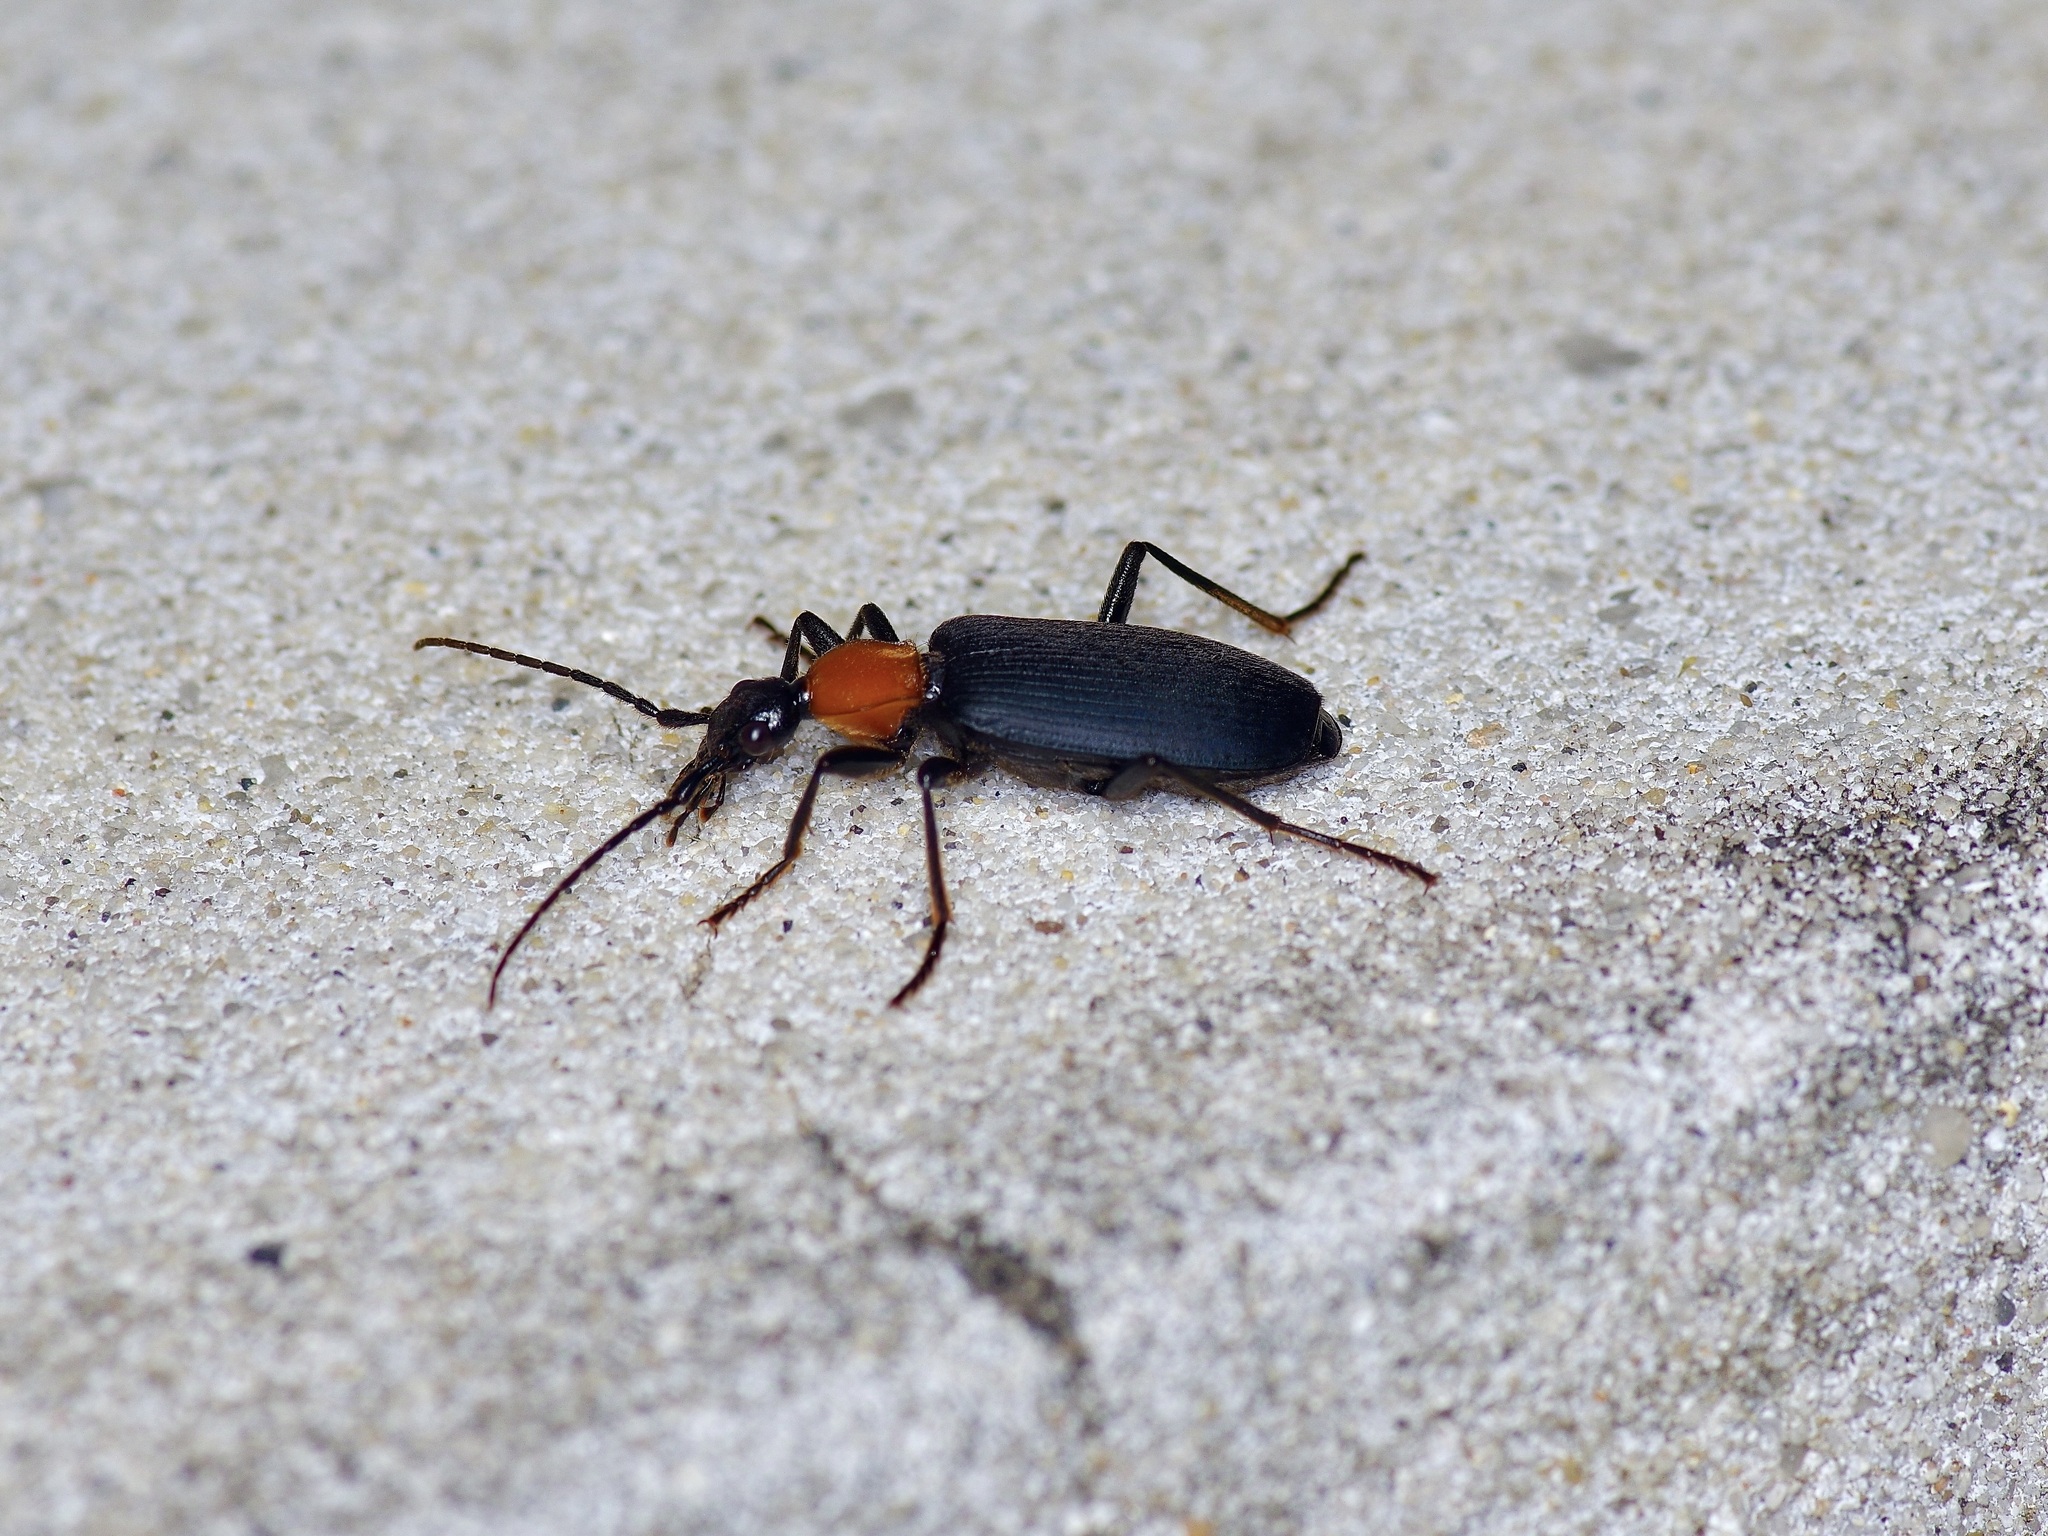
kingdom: Animalia
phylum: Arthropoda
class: Insecta
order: Coleoptera
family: Carabidae
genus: Galerita
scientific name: Galerita atripes
